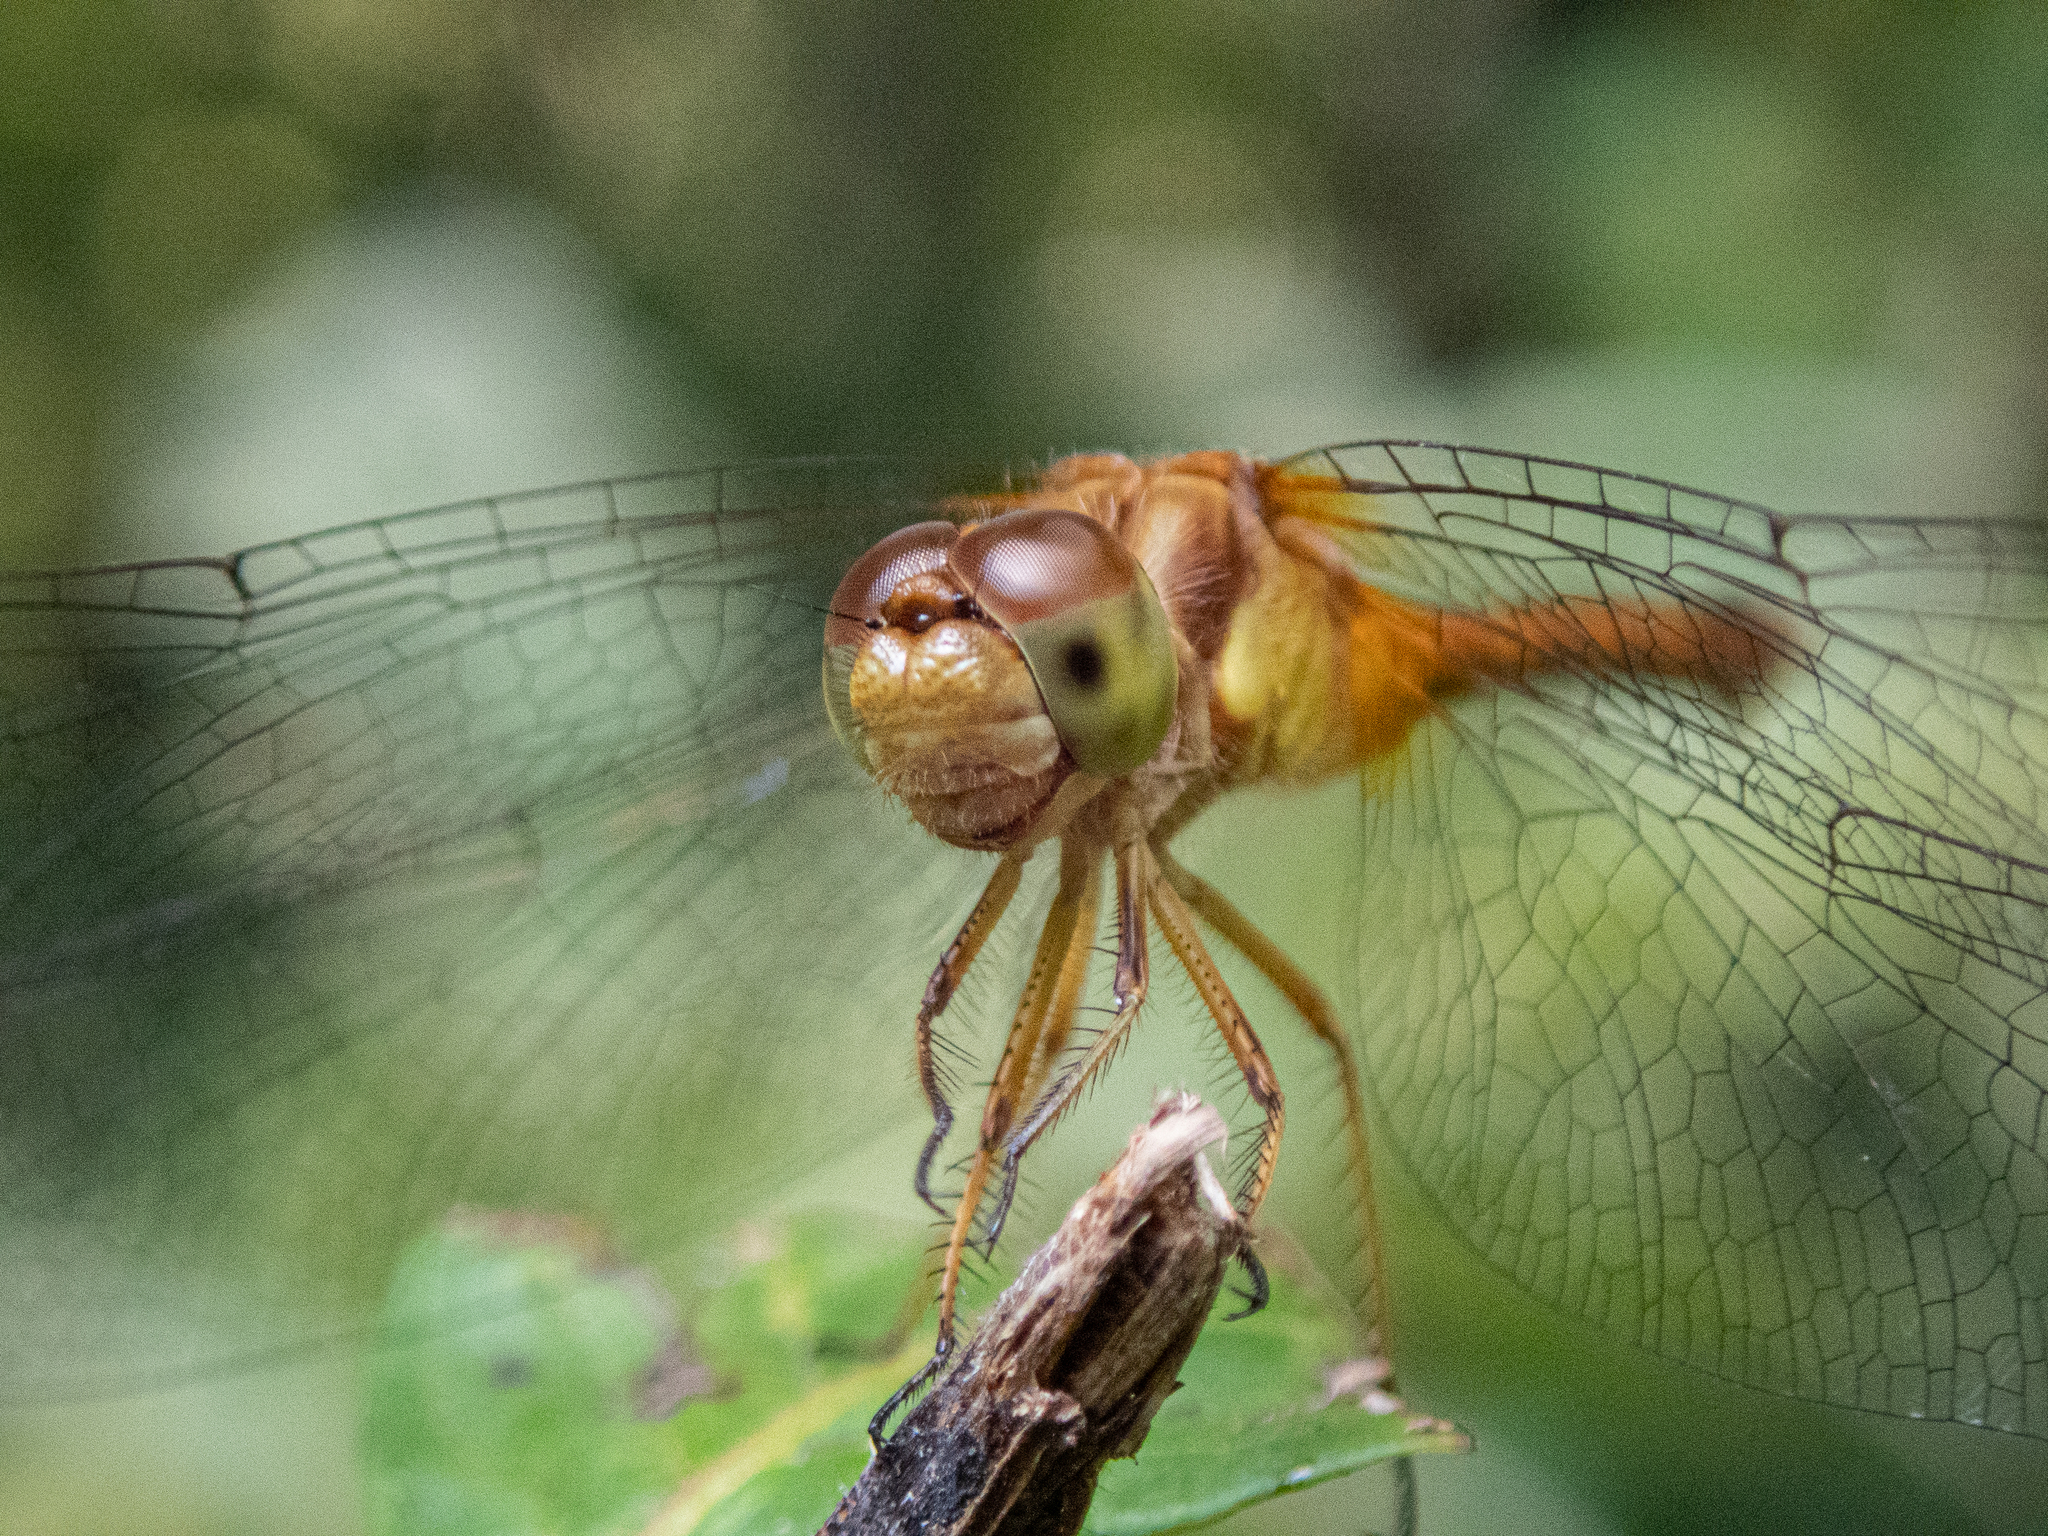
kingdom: Animalia
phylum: Arthropoda
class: Insecta
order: Odonata
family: Libellulidae
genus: Sympetrum
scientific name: Sympetrum vicinum
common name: Autumn meadowhawk
